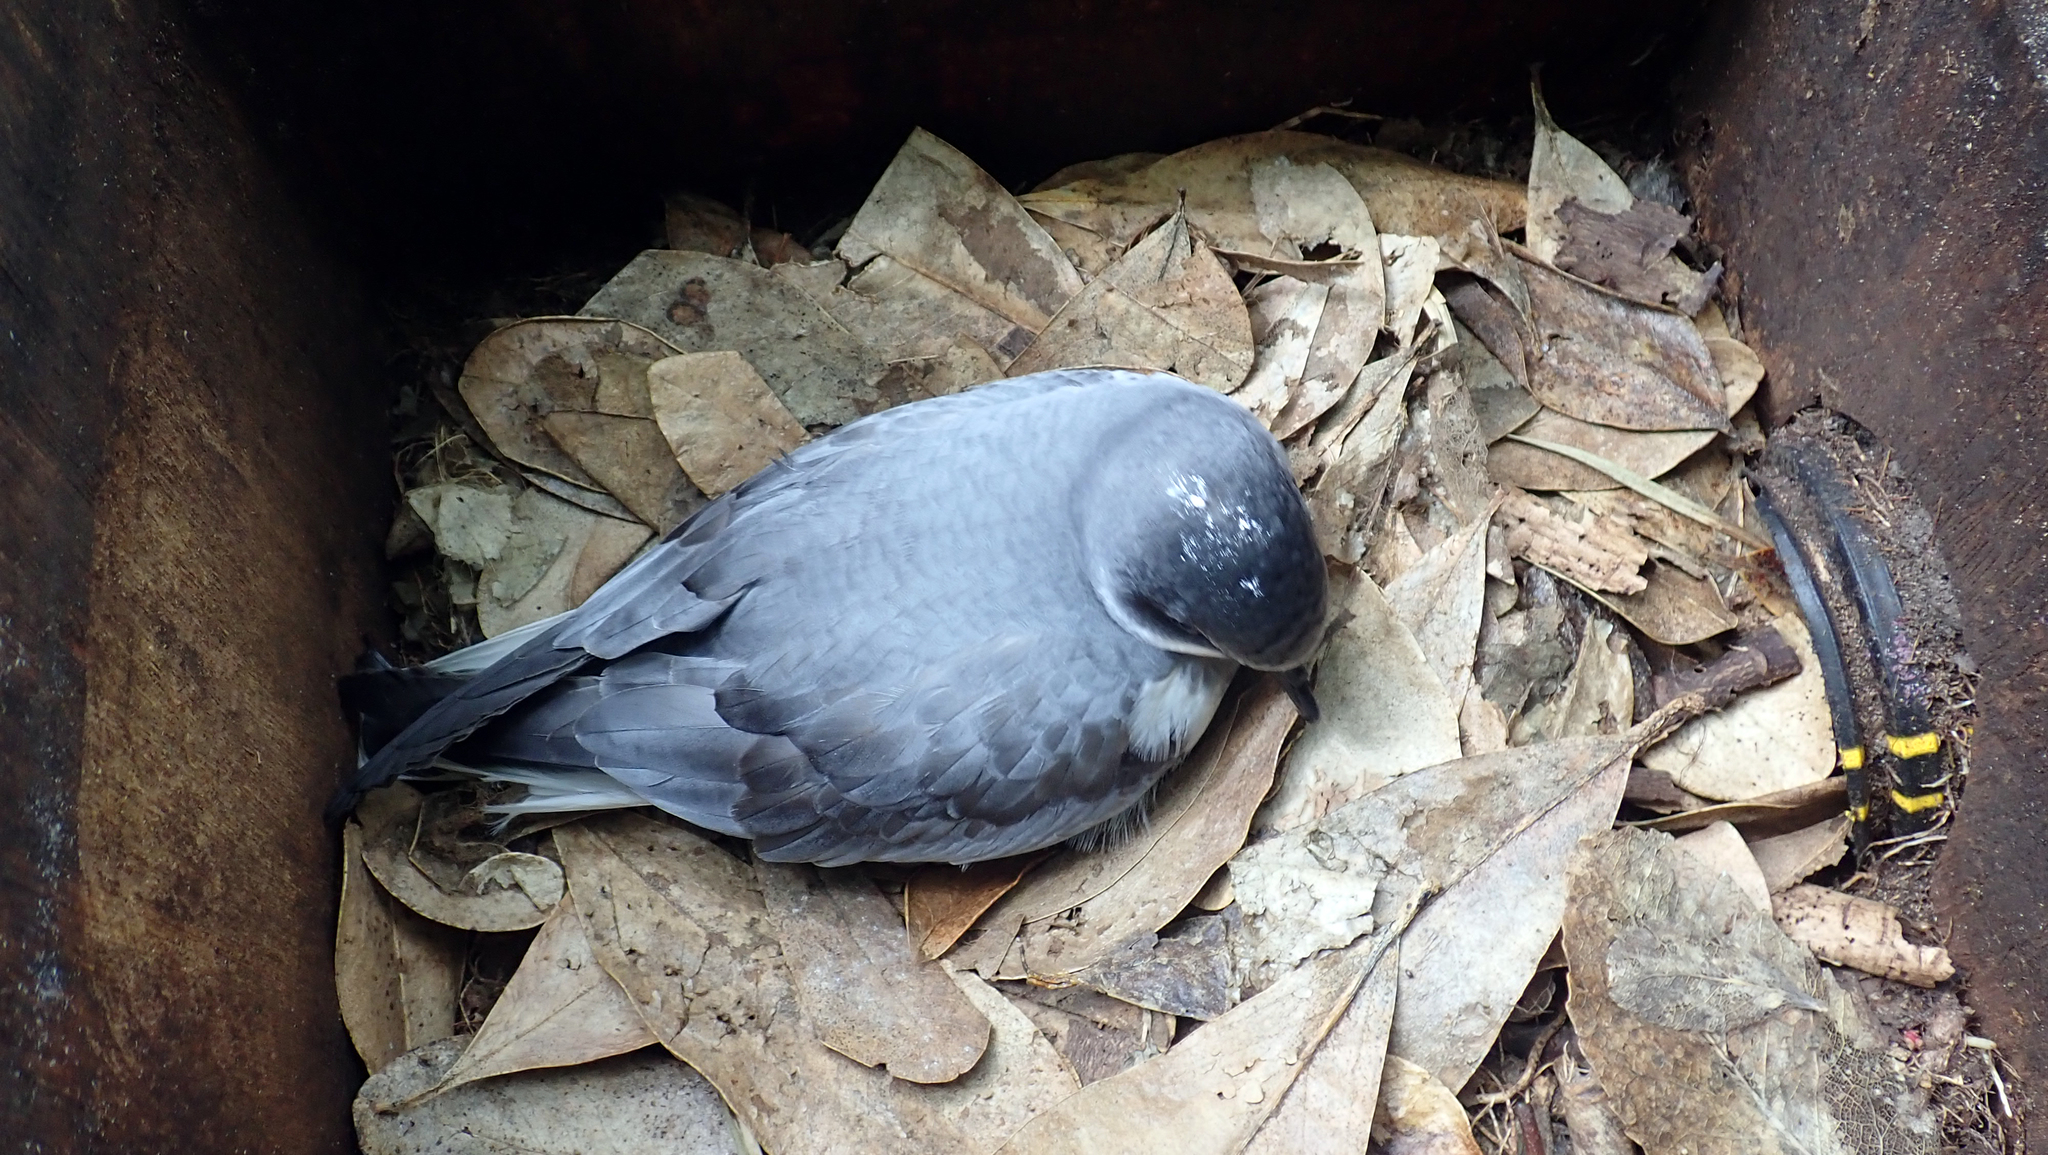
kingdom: Animalia
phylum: Chordata
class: Aves
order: Procellariiformes
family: Procellariidae
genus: Pterodroma
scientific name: Pterodroma axillaris
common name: Chatham petrel
